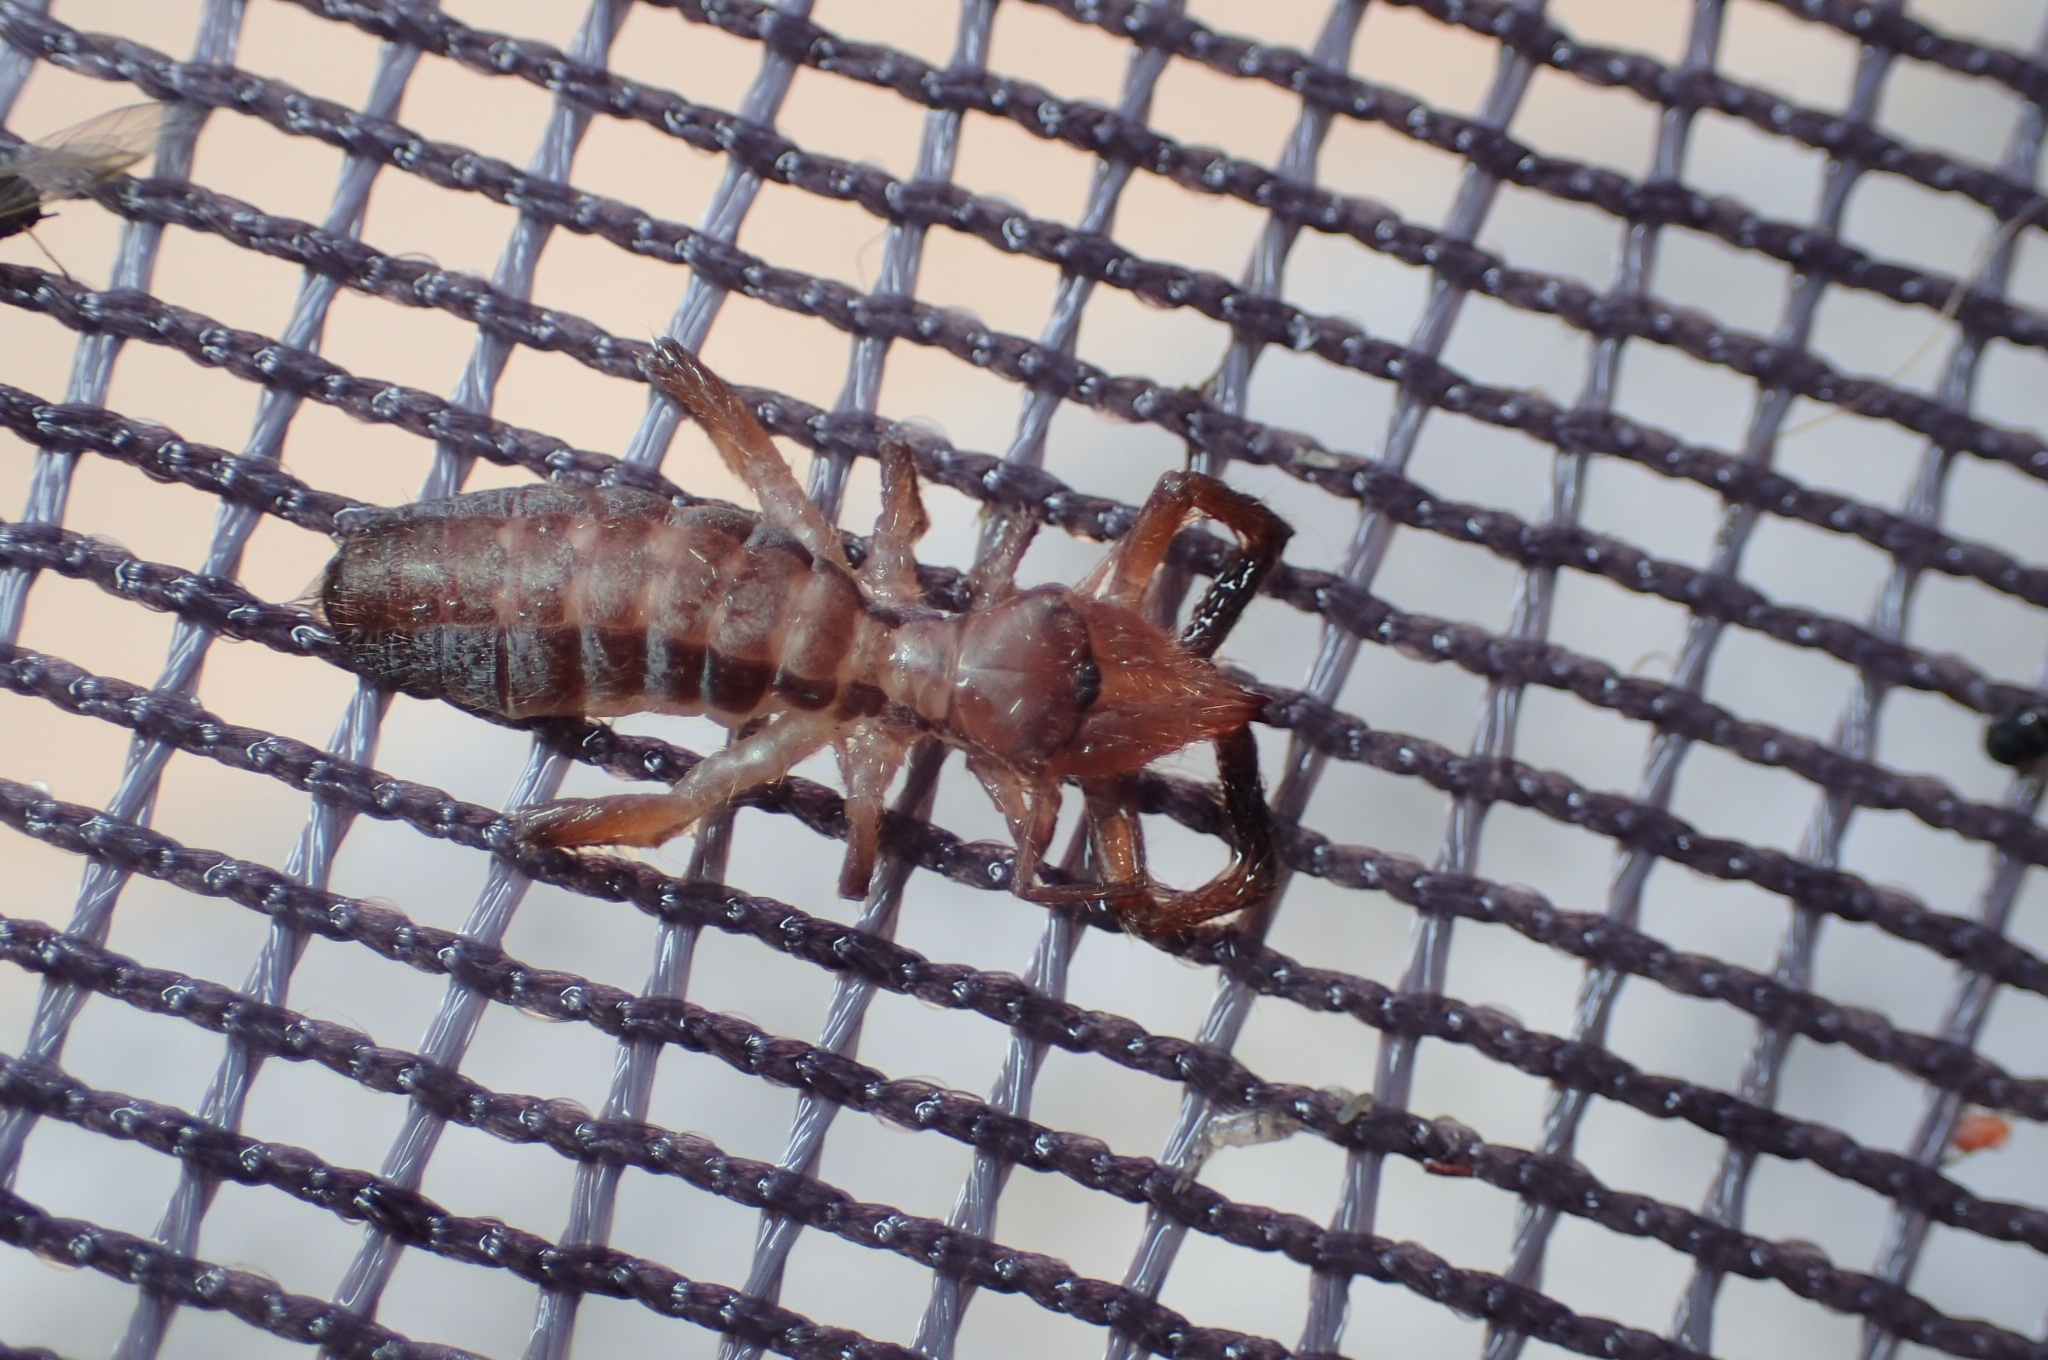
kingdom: Animalia
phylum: Arthropoda
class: Arachnida
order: Solifugae
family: Daesiidae
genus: Gluvia
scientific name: Gluvia dorsalis
